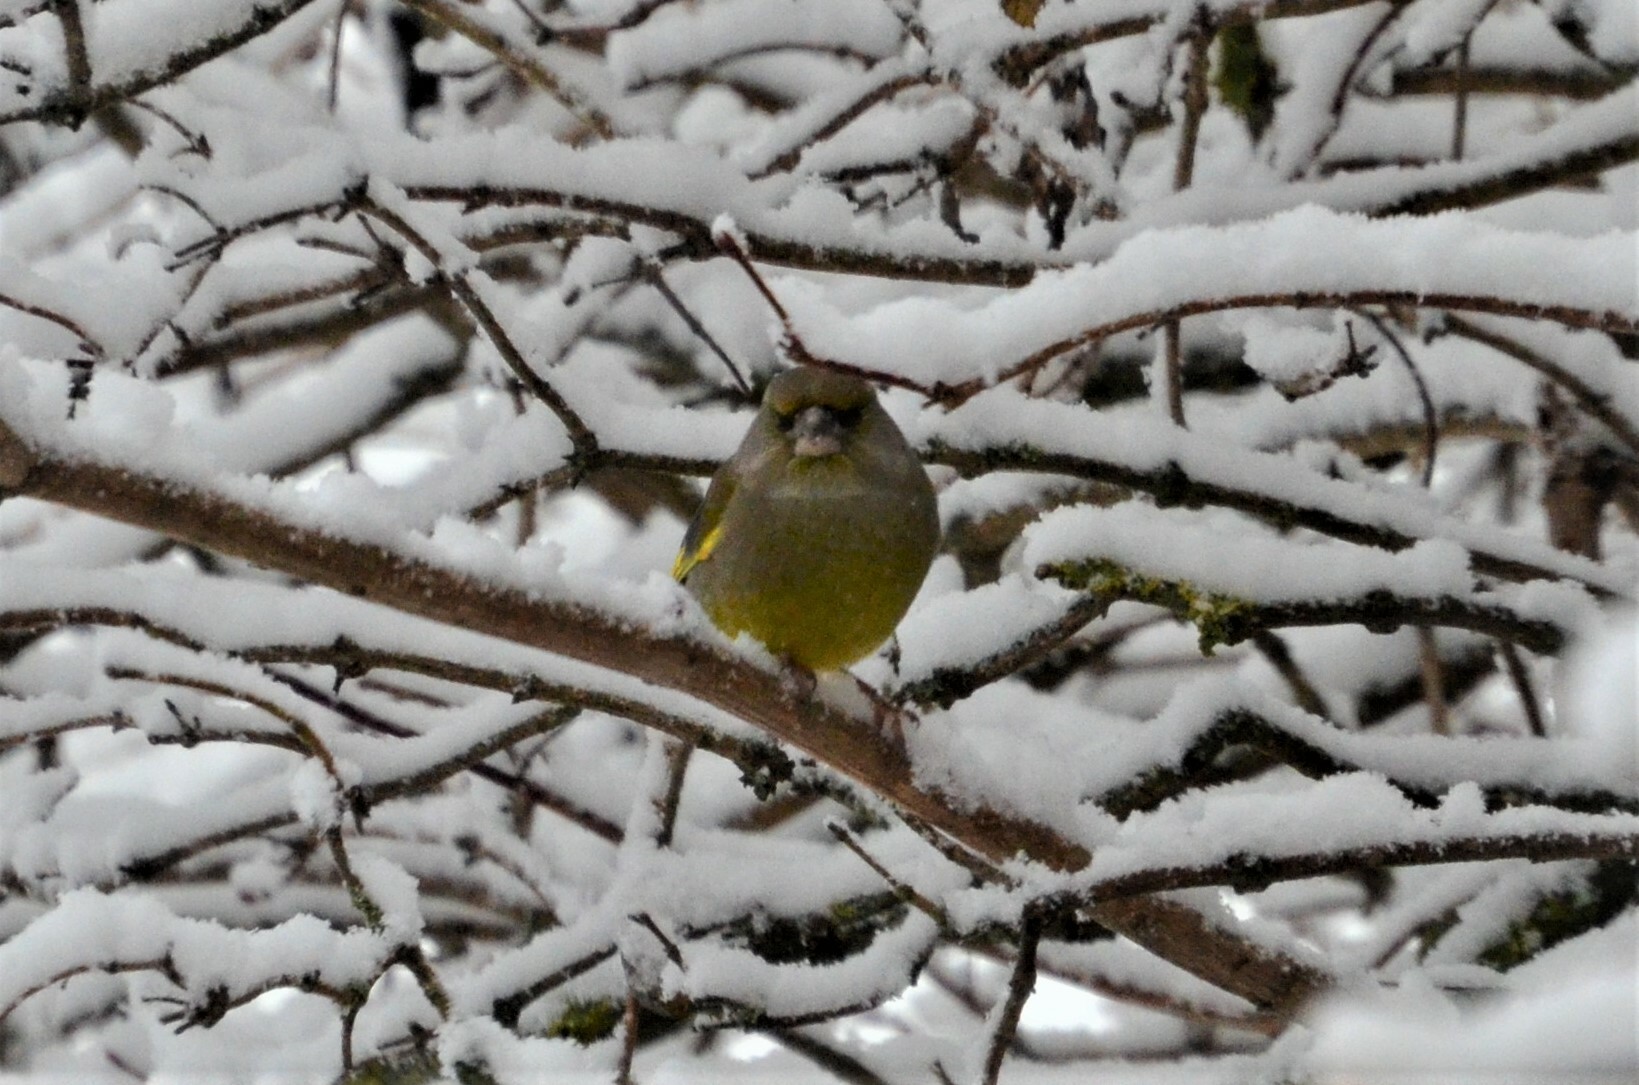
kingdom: Plantae
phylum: Tracheophyta
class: Liliopsida
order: Poales
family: Poaceae
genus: Chloris
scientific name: Chloris chloris
